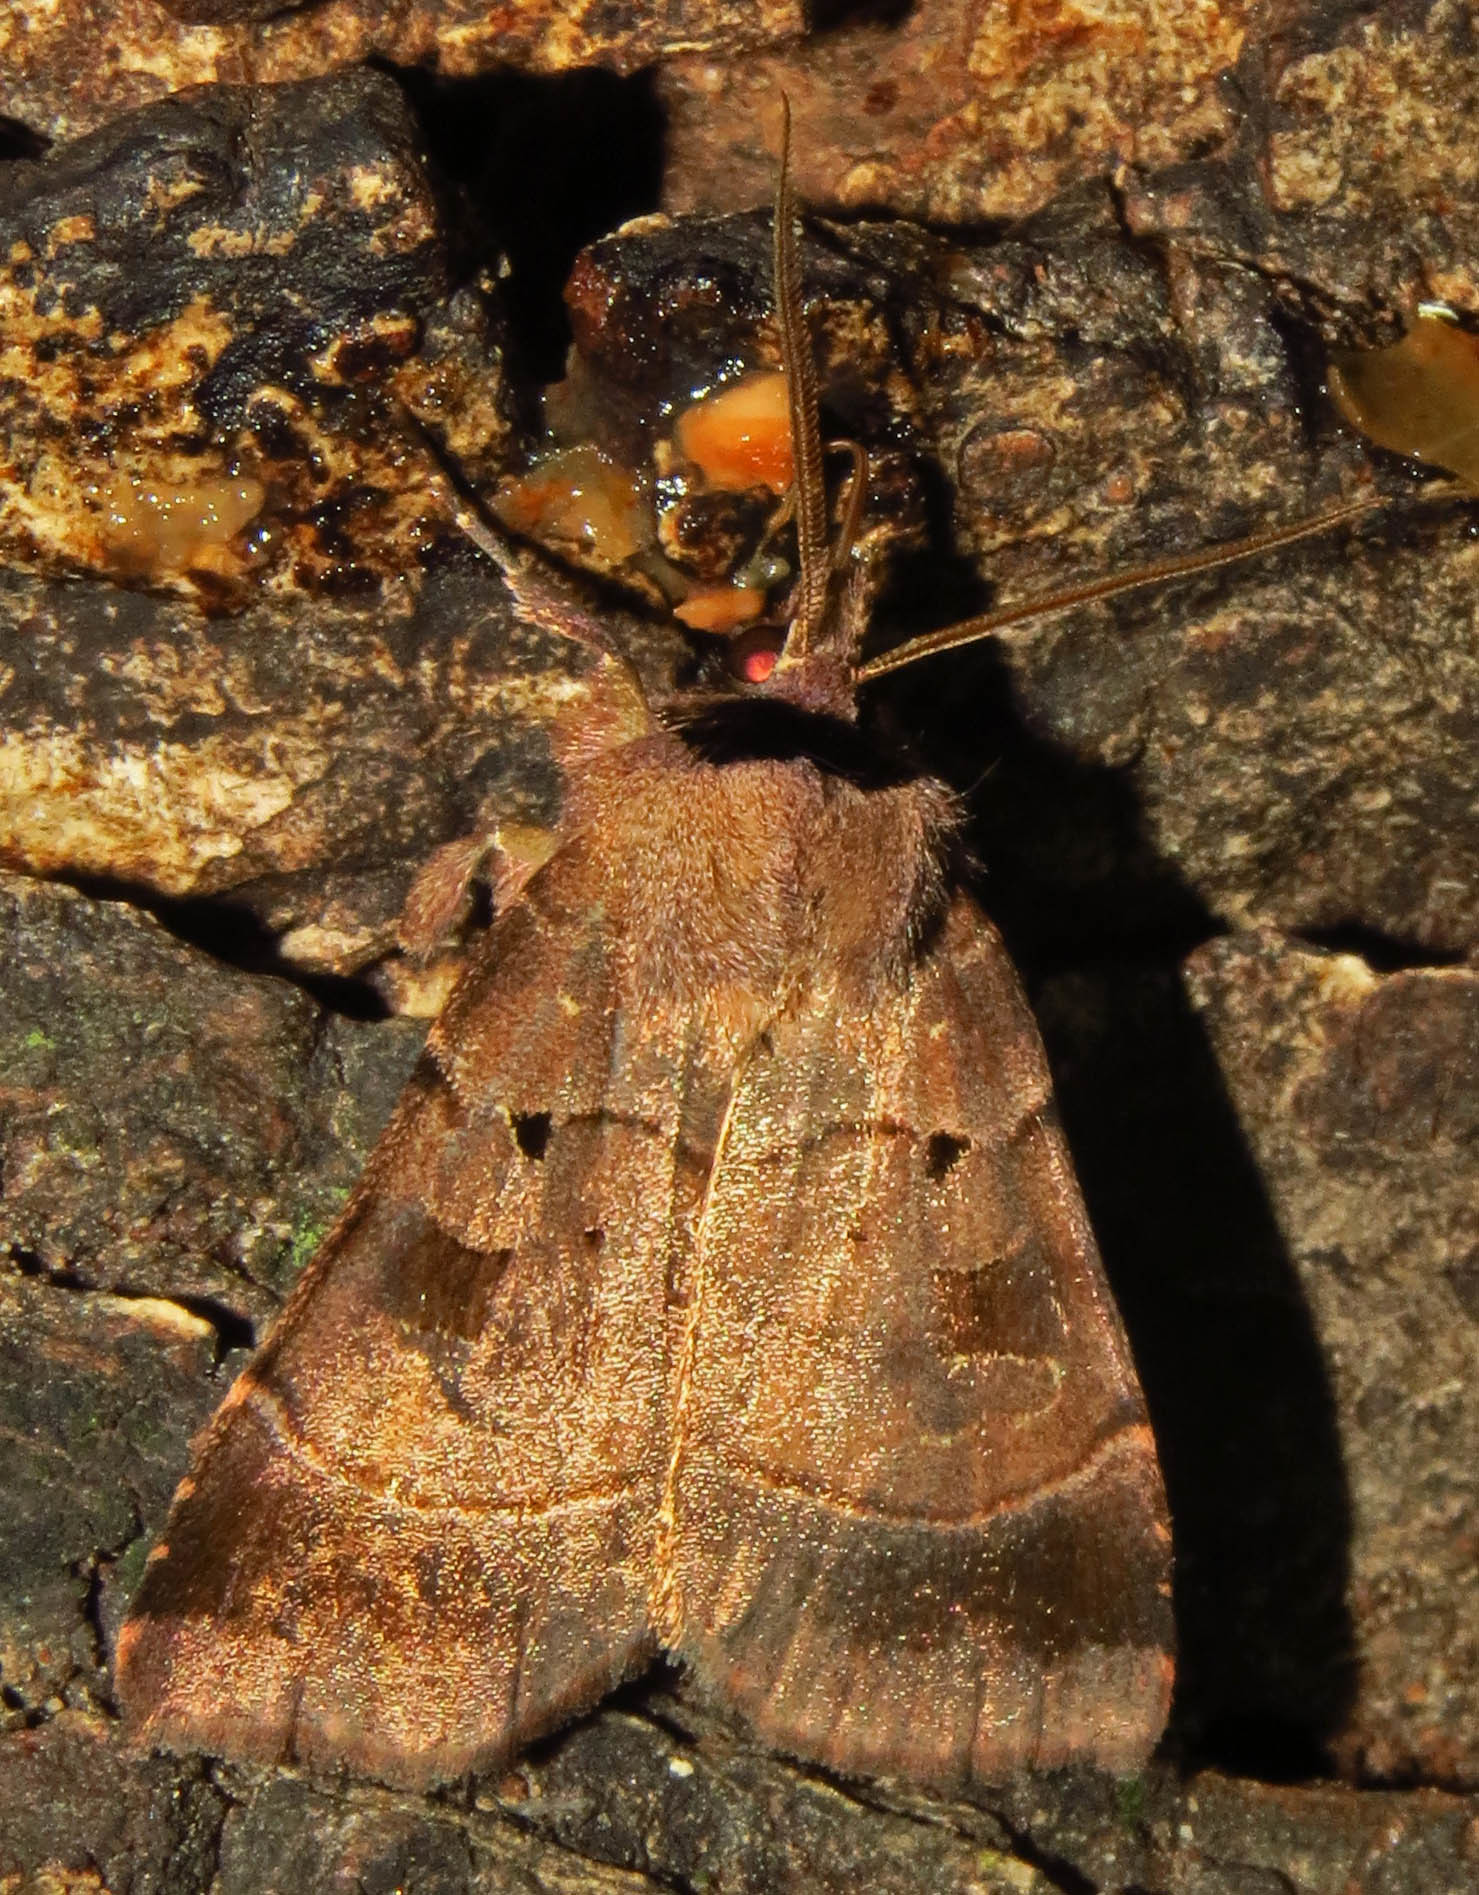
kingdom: Animalia
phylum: Arthropoda
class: Insecta
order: Lepidoptera
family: Noctuidae
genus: Agnorisma
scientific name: Agnorisma badinodis
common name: Pale-banded dart
